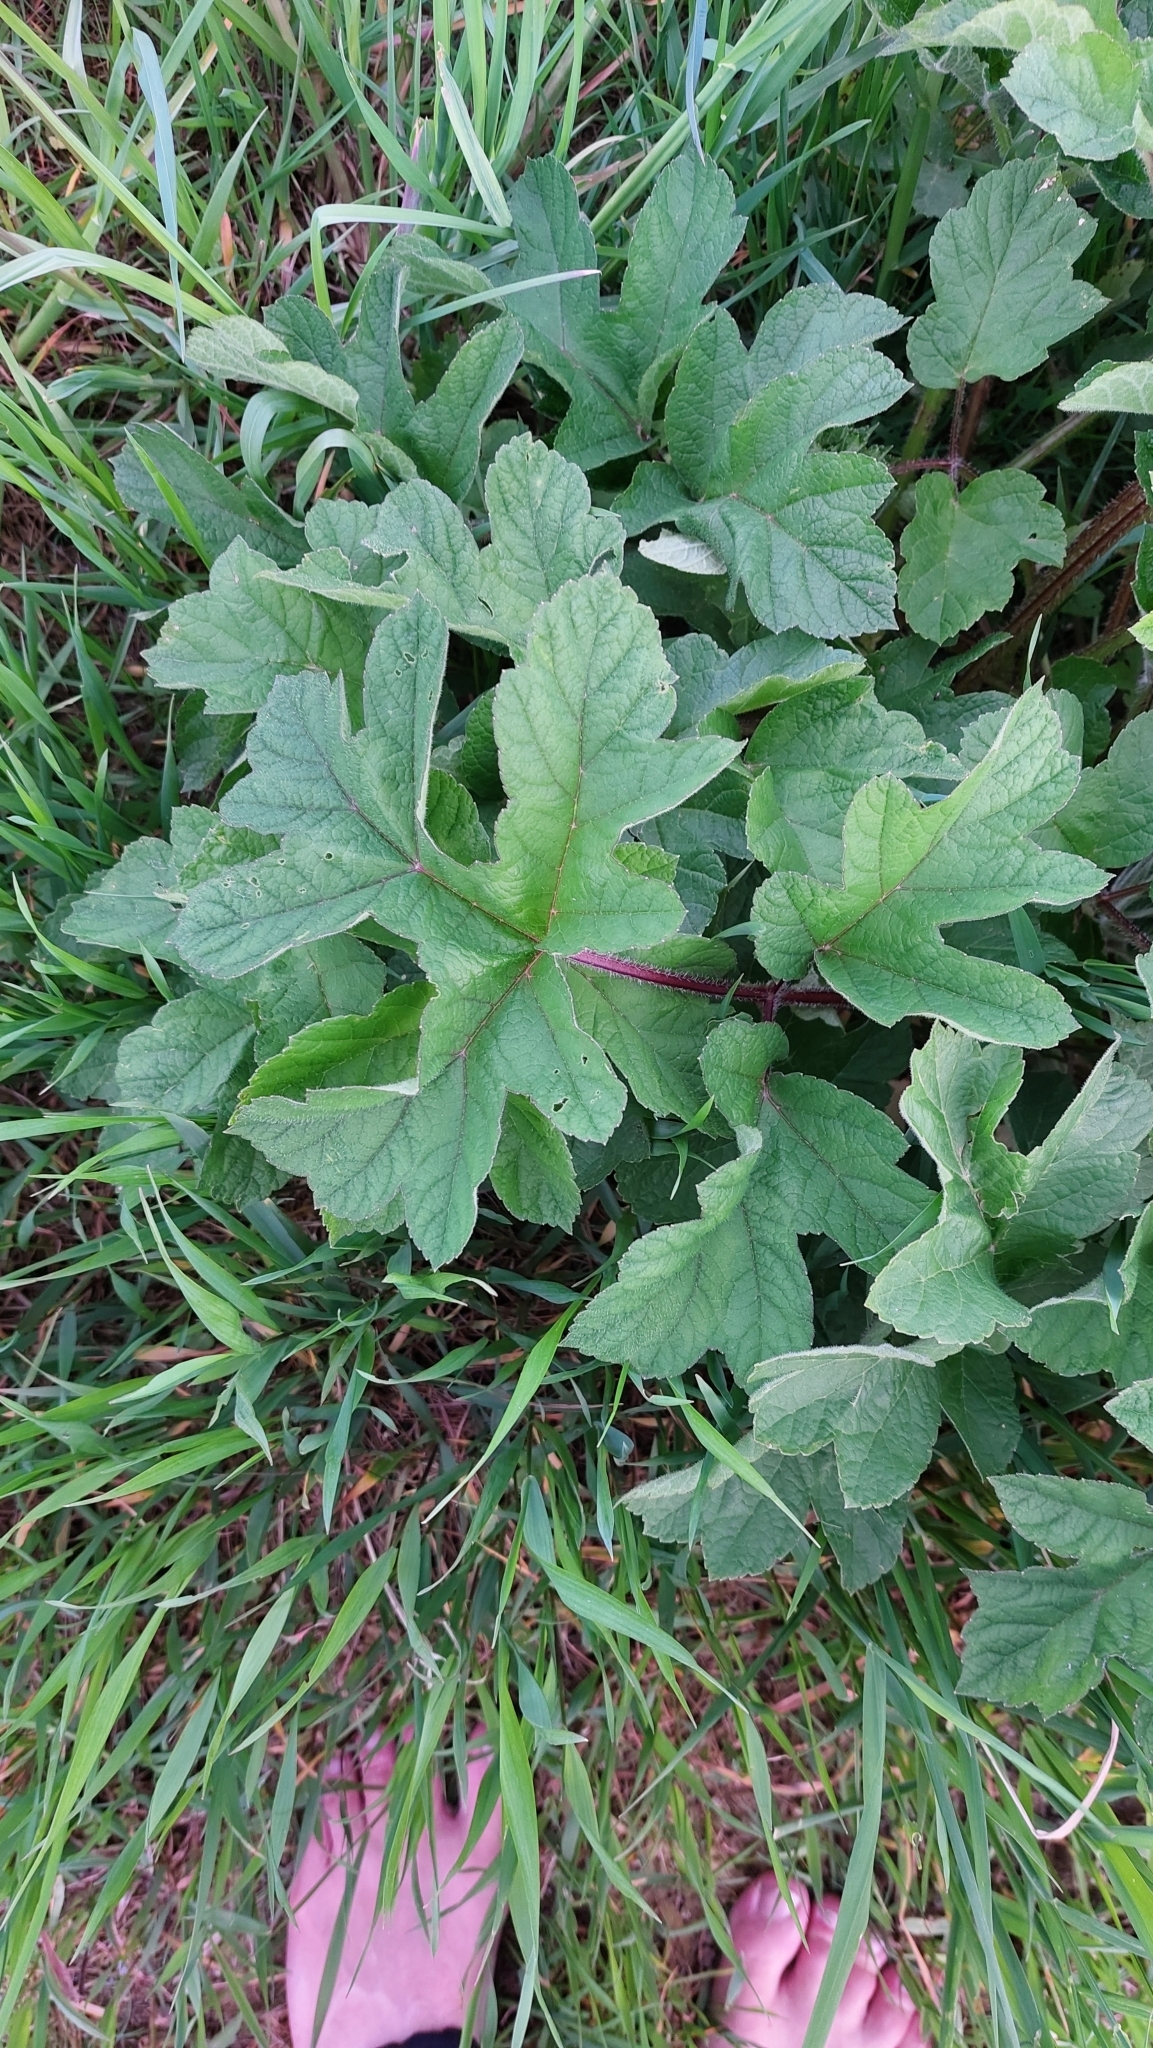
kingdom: Plantae
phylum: Tracheophyta
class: Magnoliopsida
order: Apiales
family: Apiaceae
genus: Heracleum
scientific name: Heracleum sphondylium
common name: Hogweed
